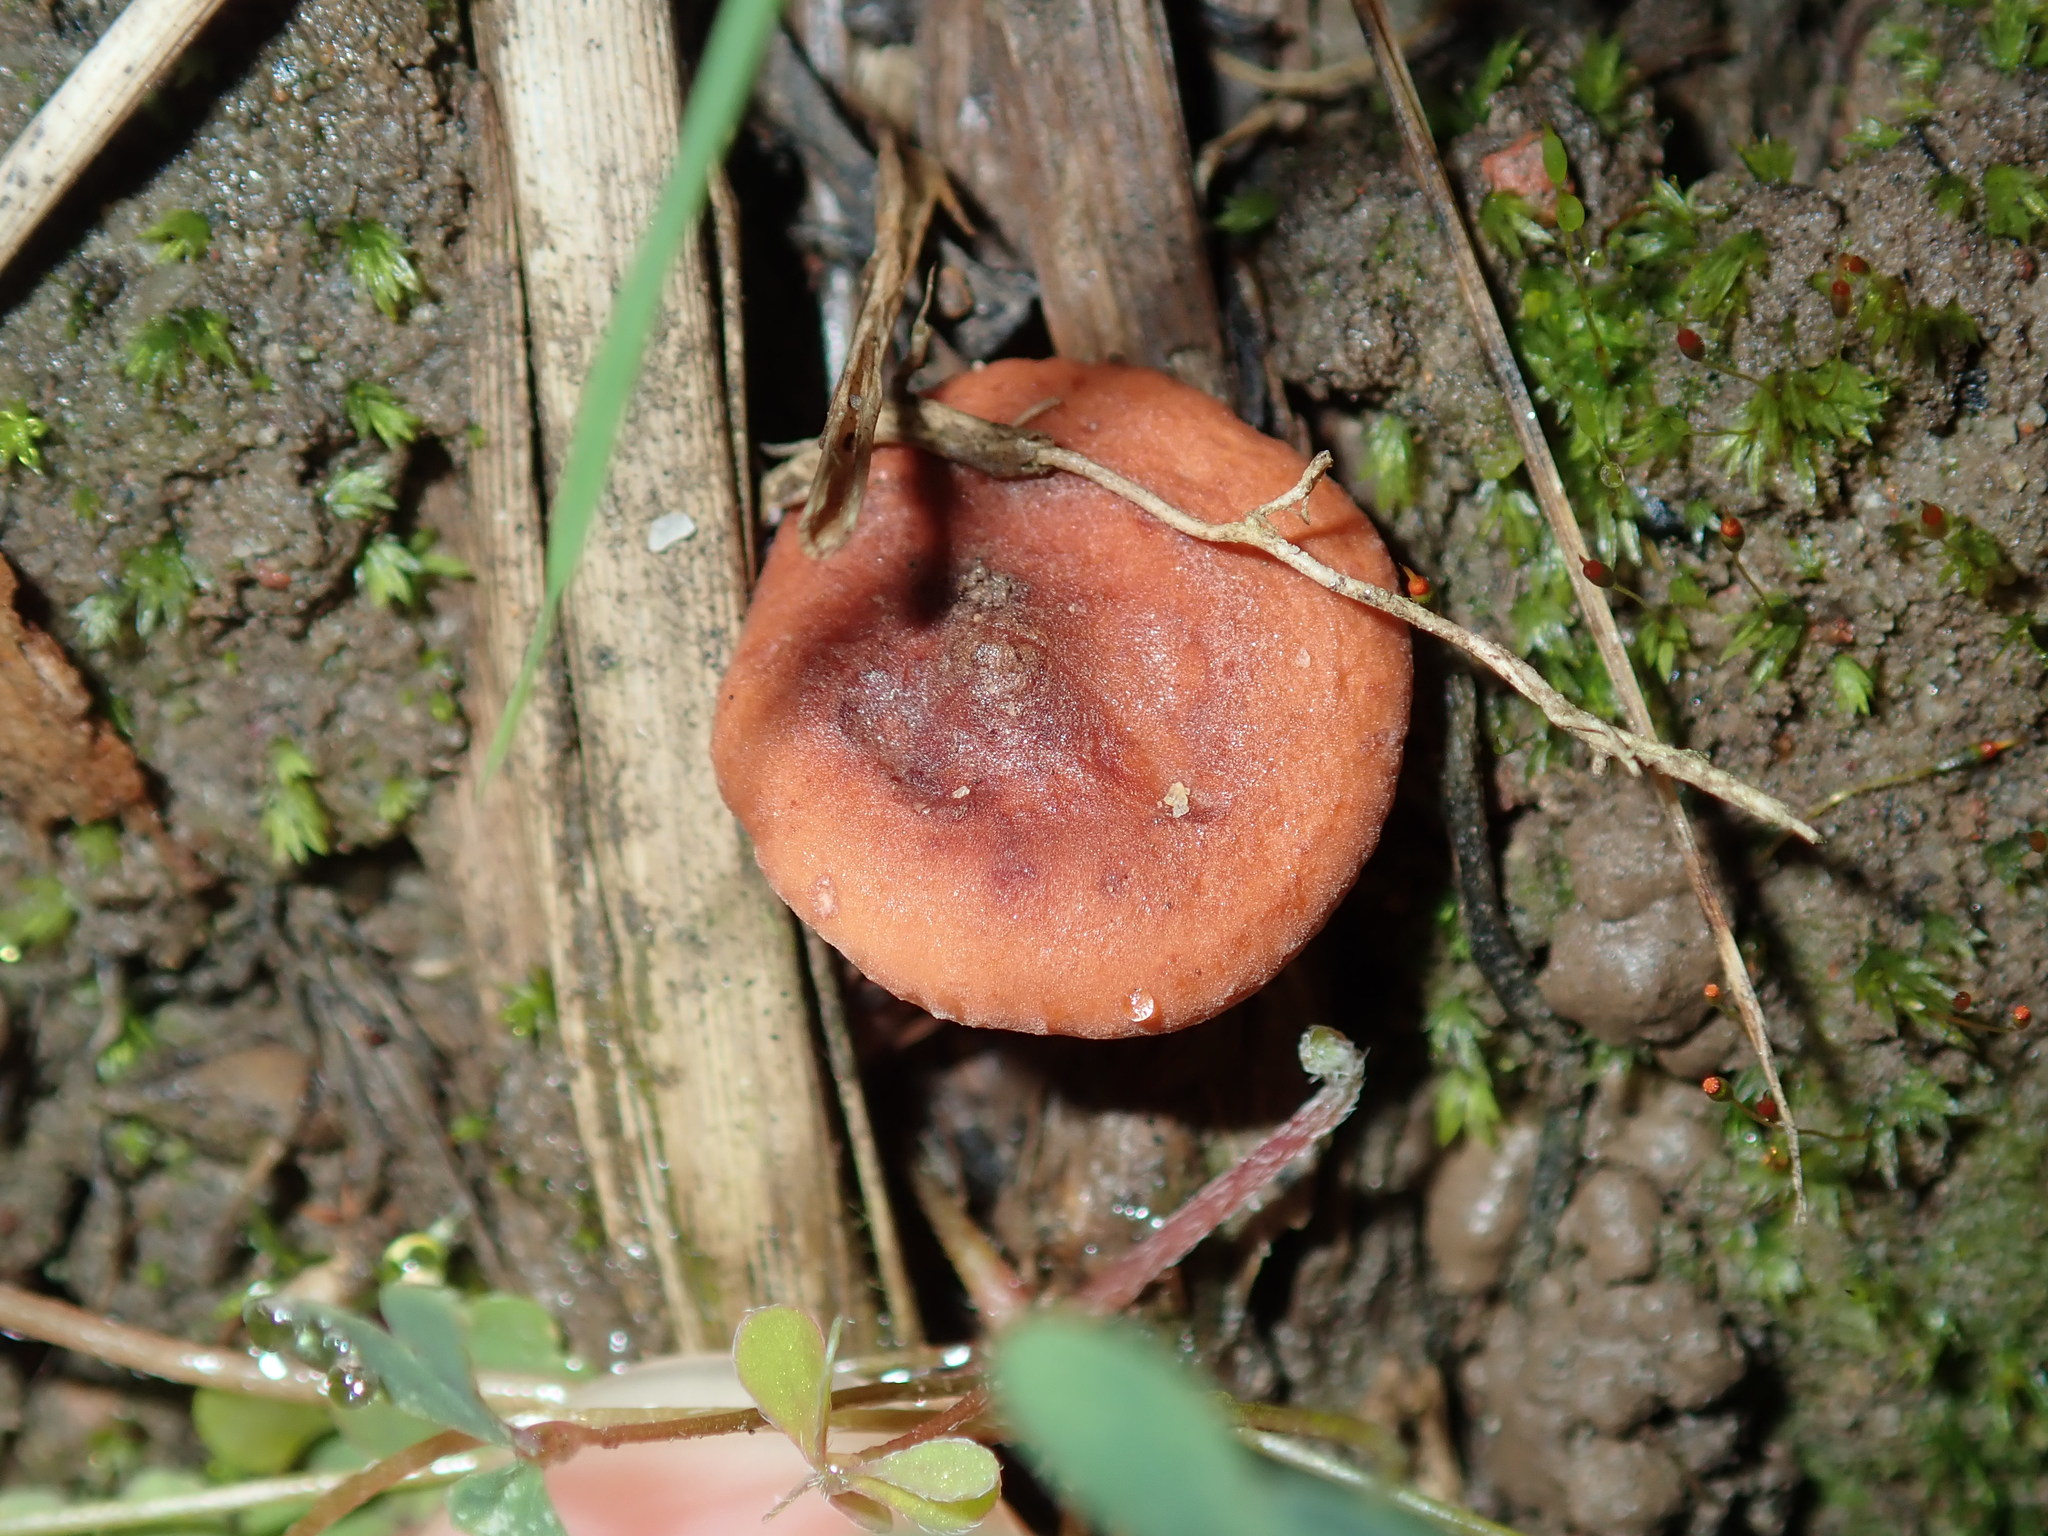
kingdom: Fungi
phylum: Basidiomycota
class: Agaricomycetes
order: Russulales
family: Russulaceae
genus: Lactarius
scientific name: Lactarius eucalypti
